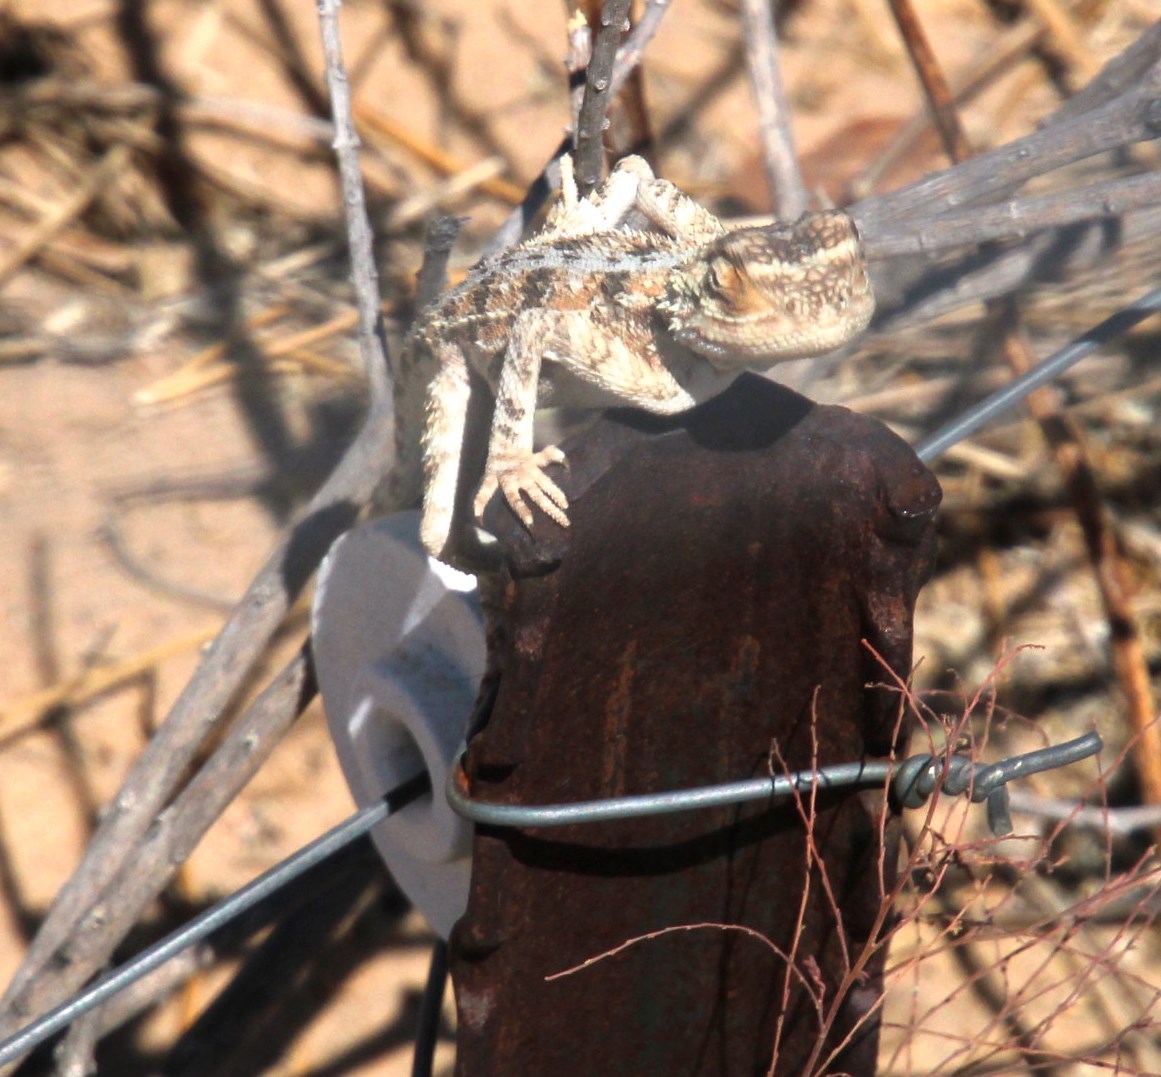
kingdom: Animalia
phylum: Chordata
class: Squamata
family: Agamidae
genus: Agama
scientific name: Agama aculeata
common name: Common ground agama
